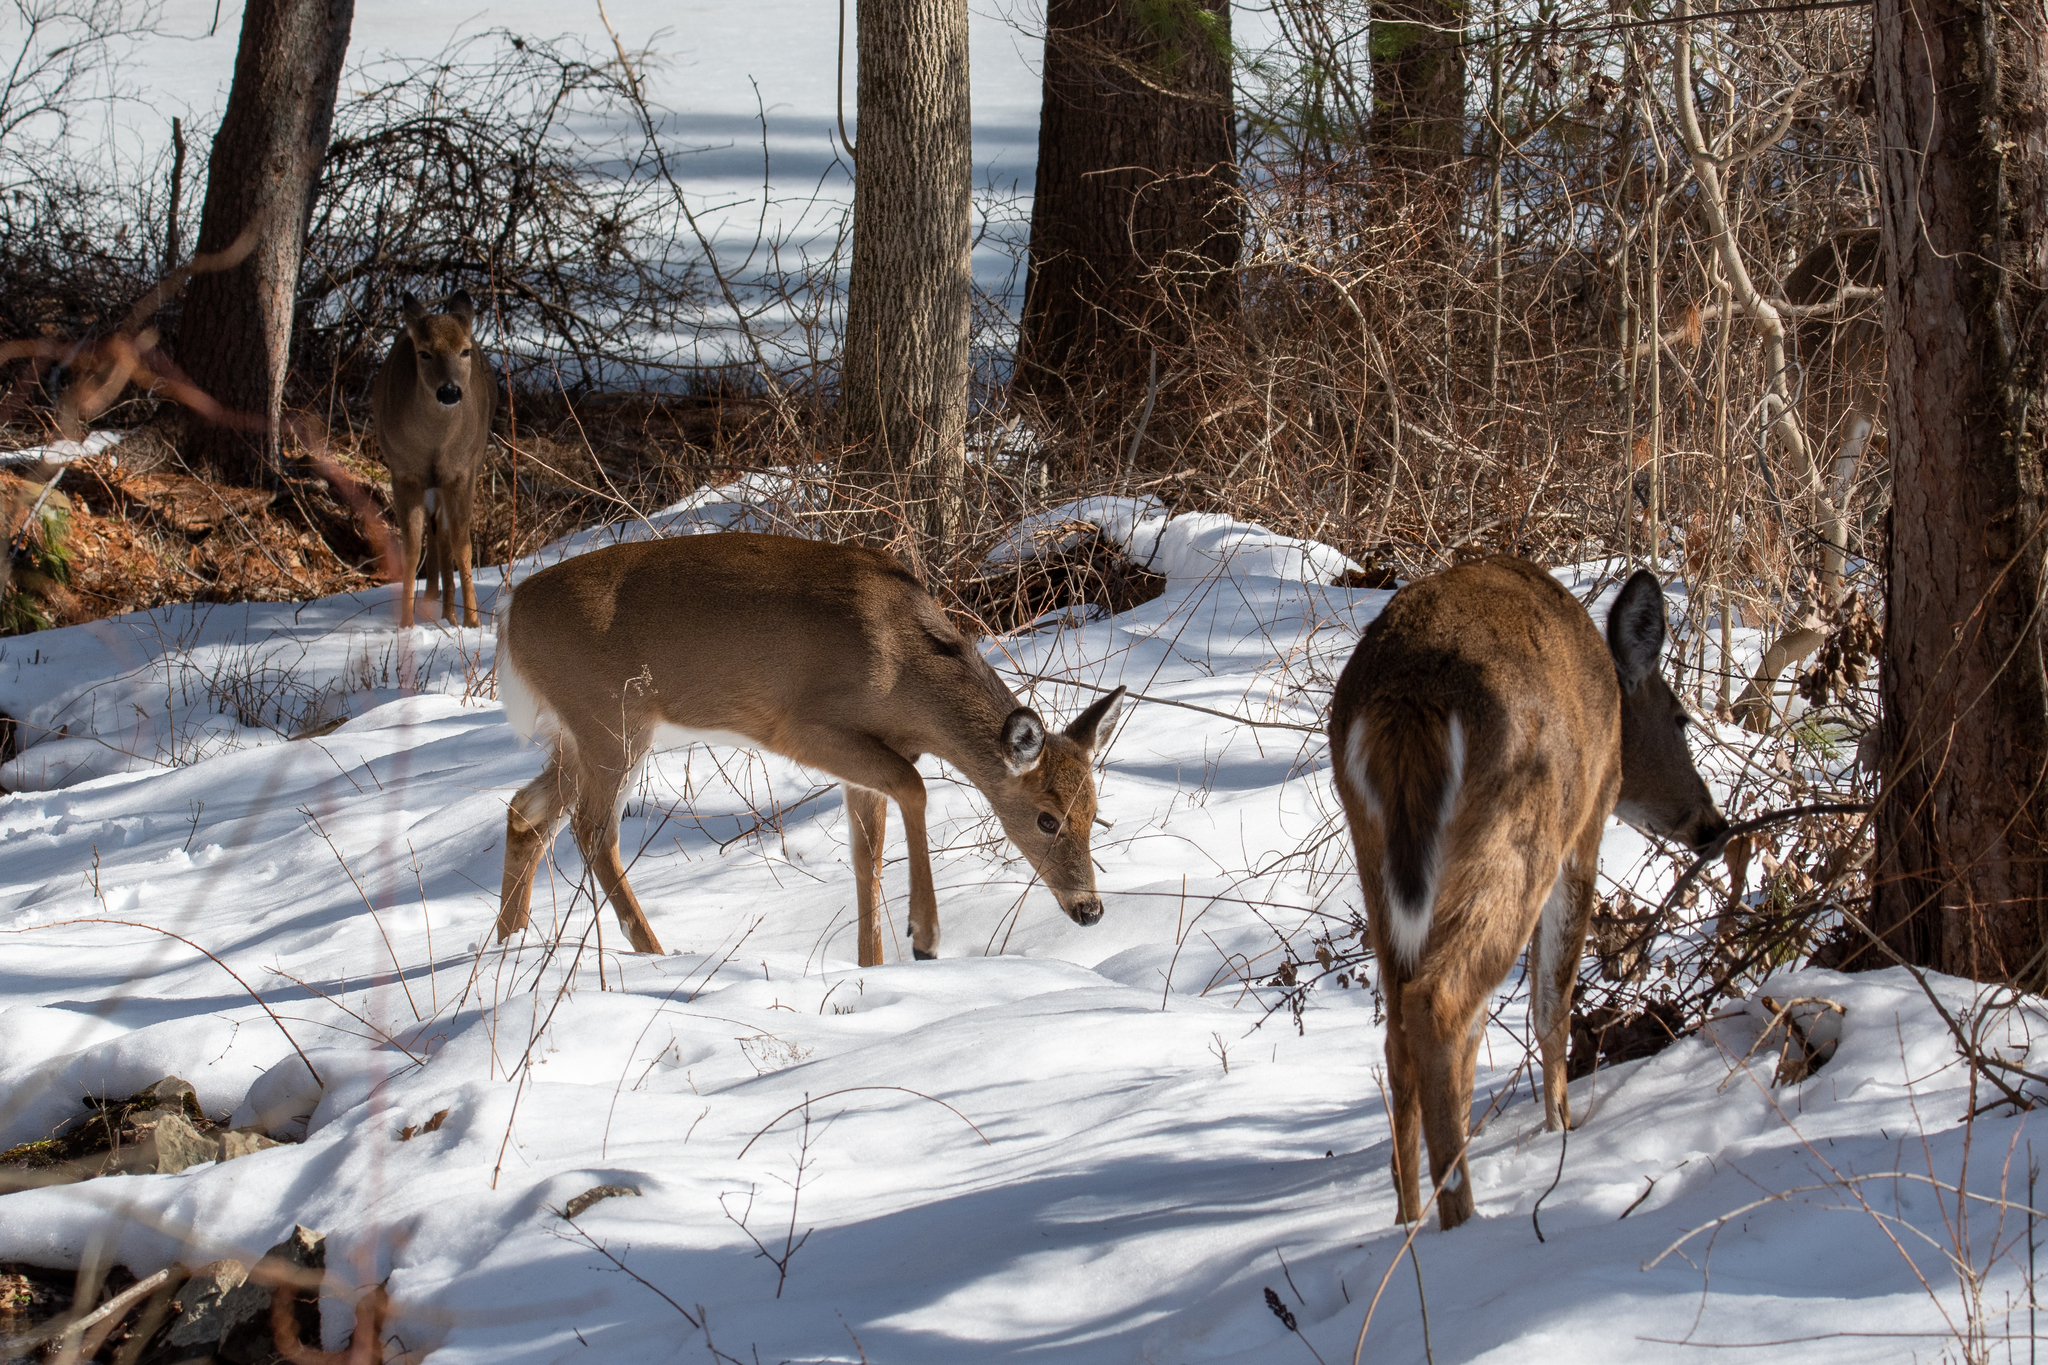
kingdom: Animalia
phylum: Chordata
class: Mammalia
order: Artiodactyla
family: Cervidae
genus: Odocoileus
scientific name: Odocoileus virginianus
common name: White-tailed deer
